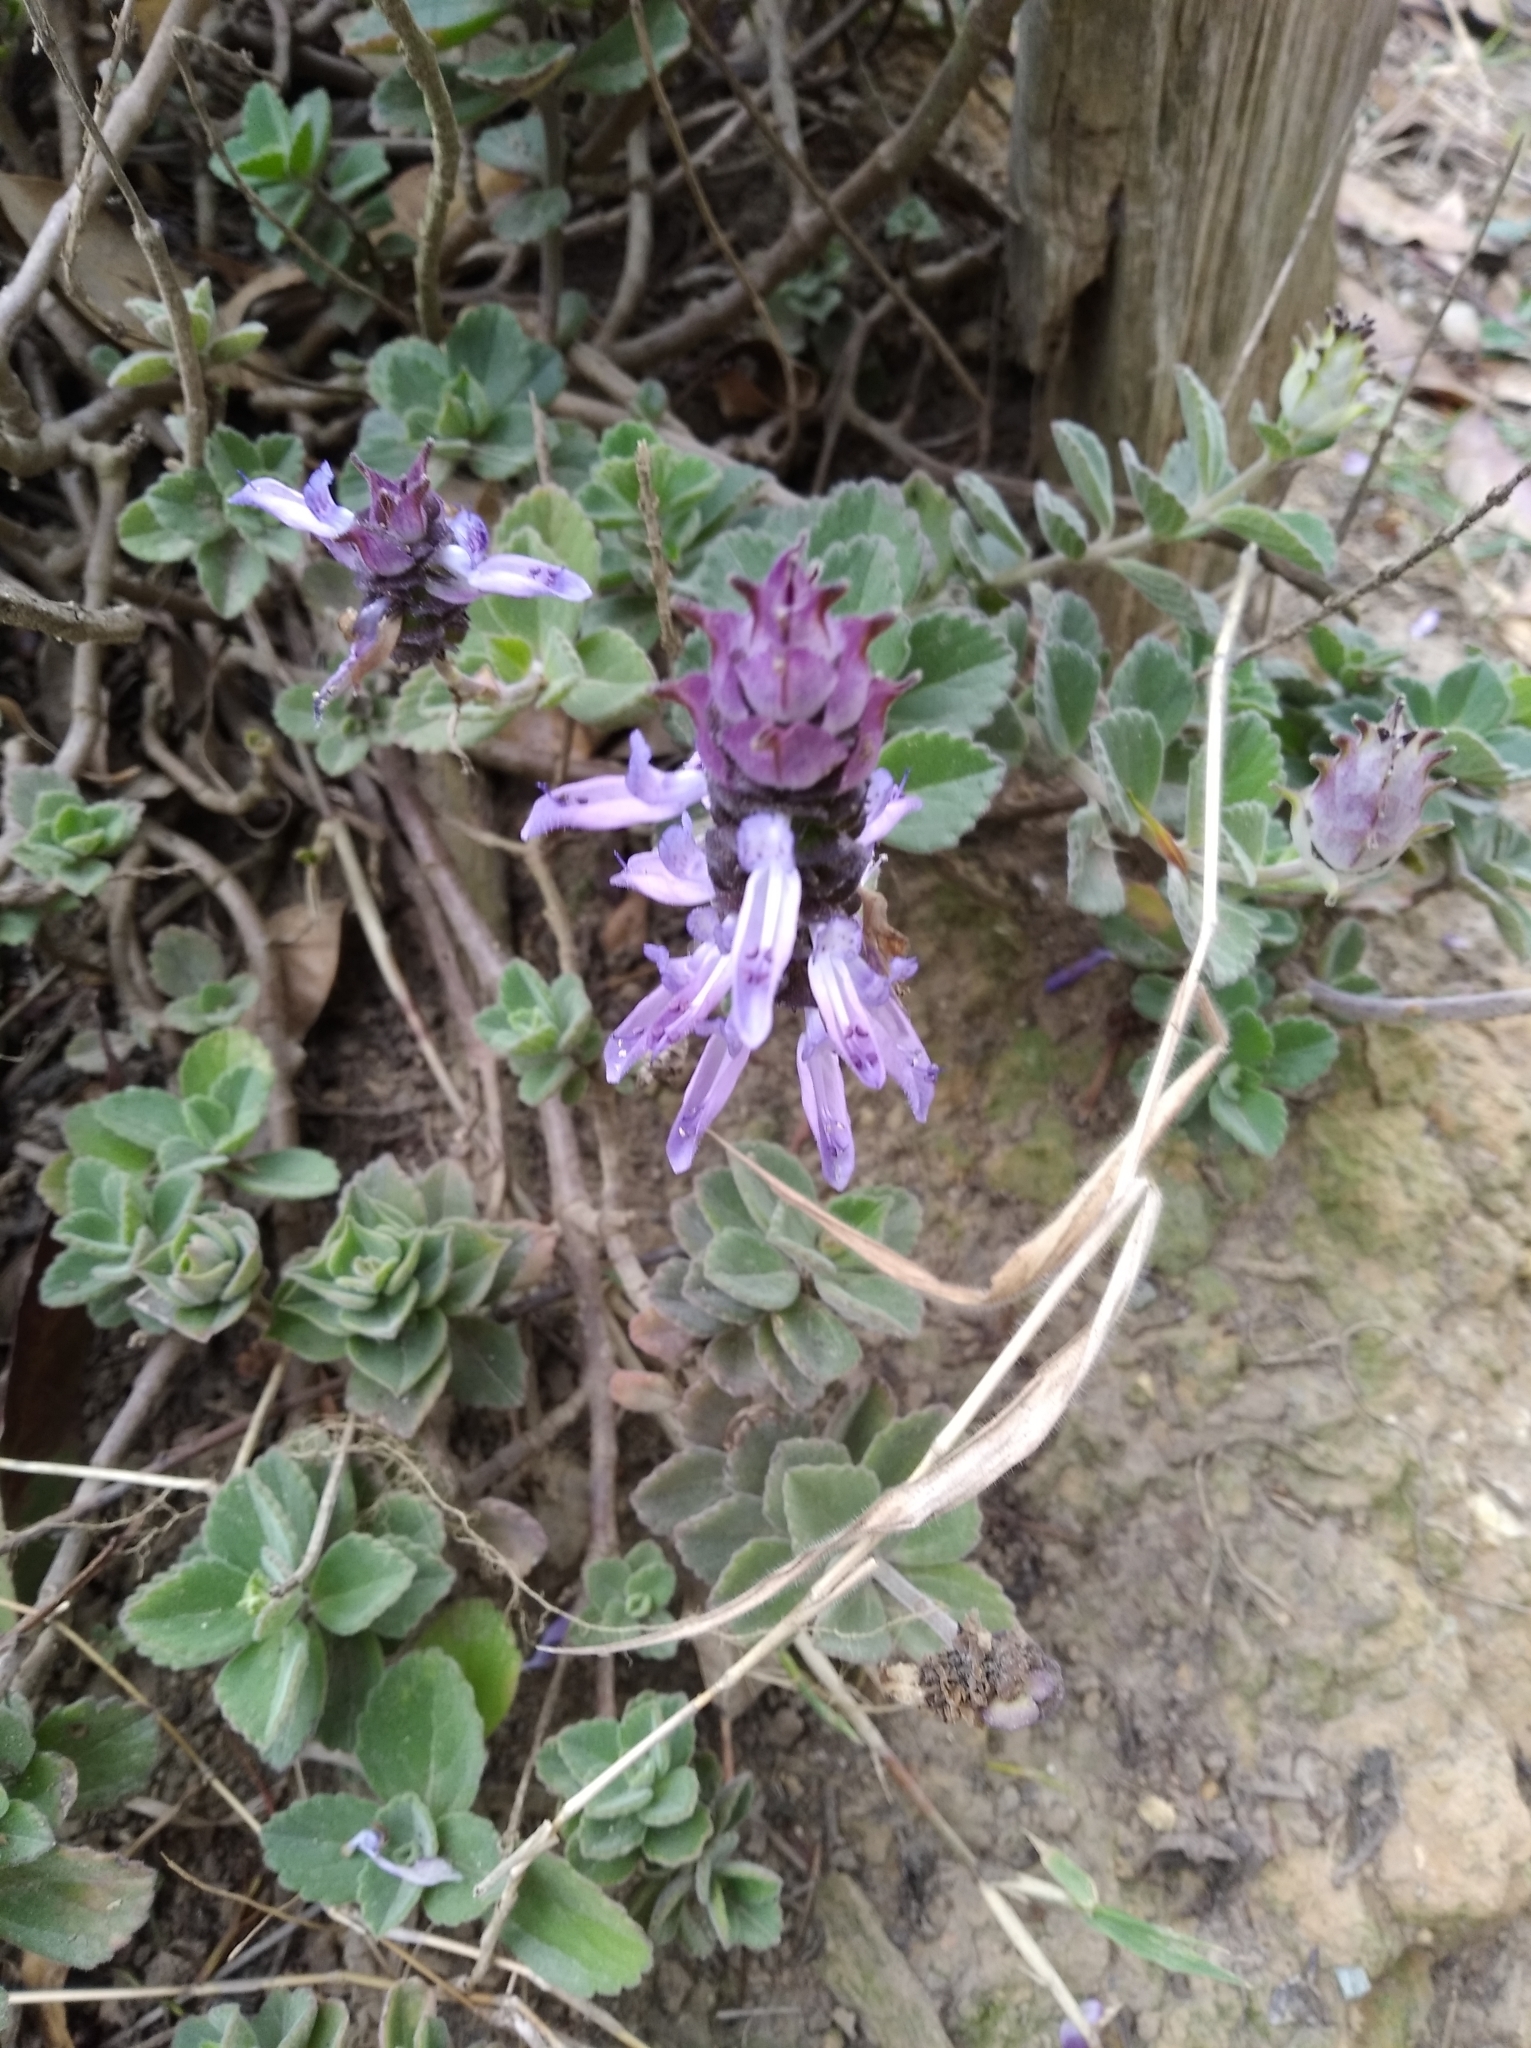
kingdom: Plantae
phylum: Tracheophyta
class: Magnoliopsida
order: Lamiales
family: Lamiaceae
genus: Coleus
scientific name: Coleus neochilus
